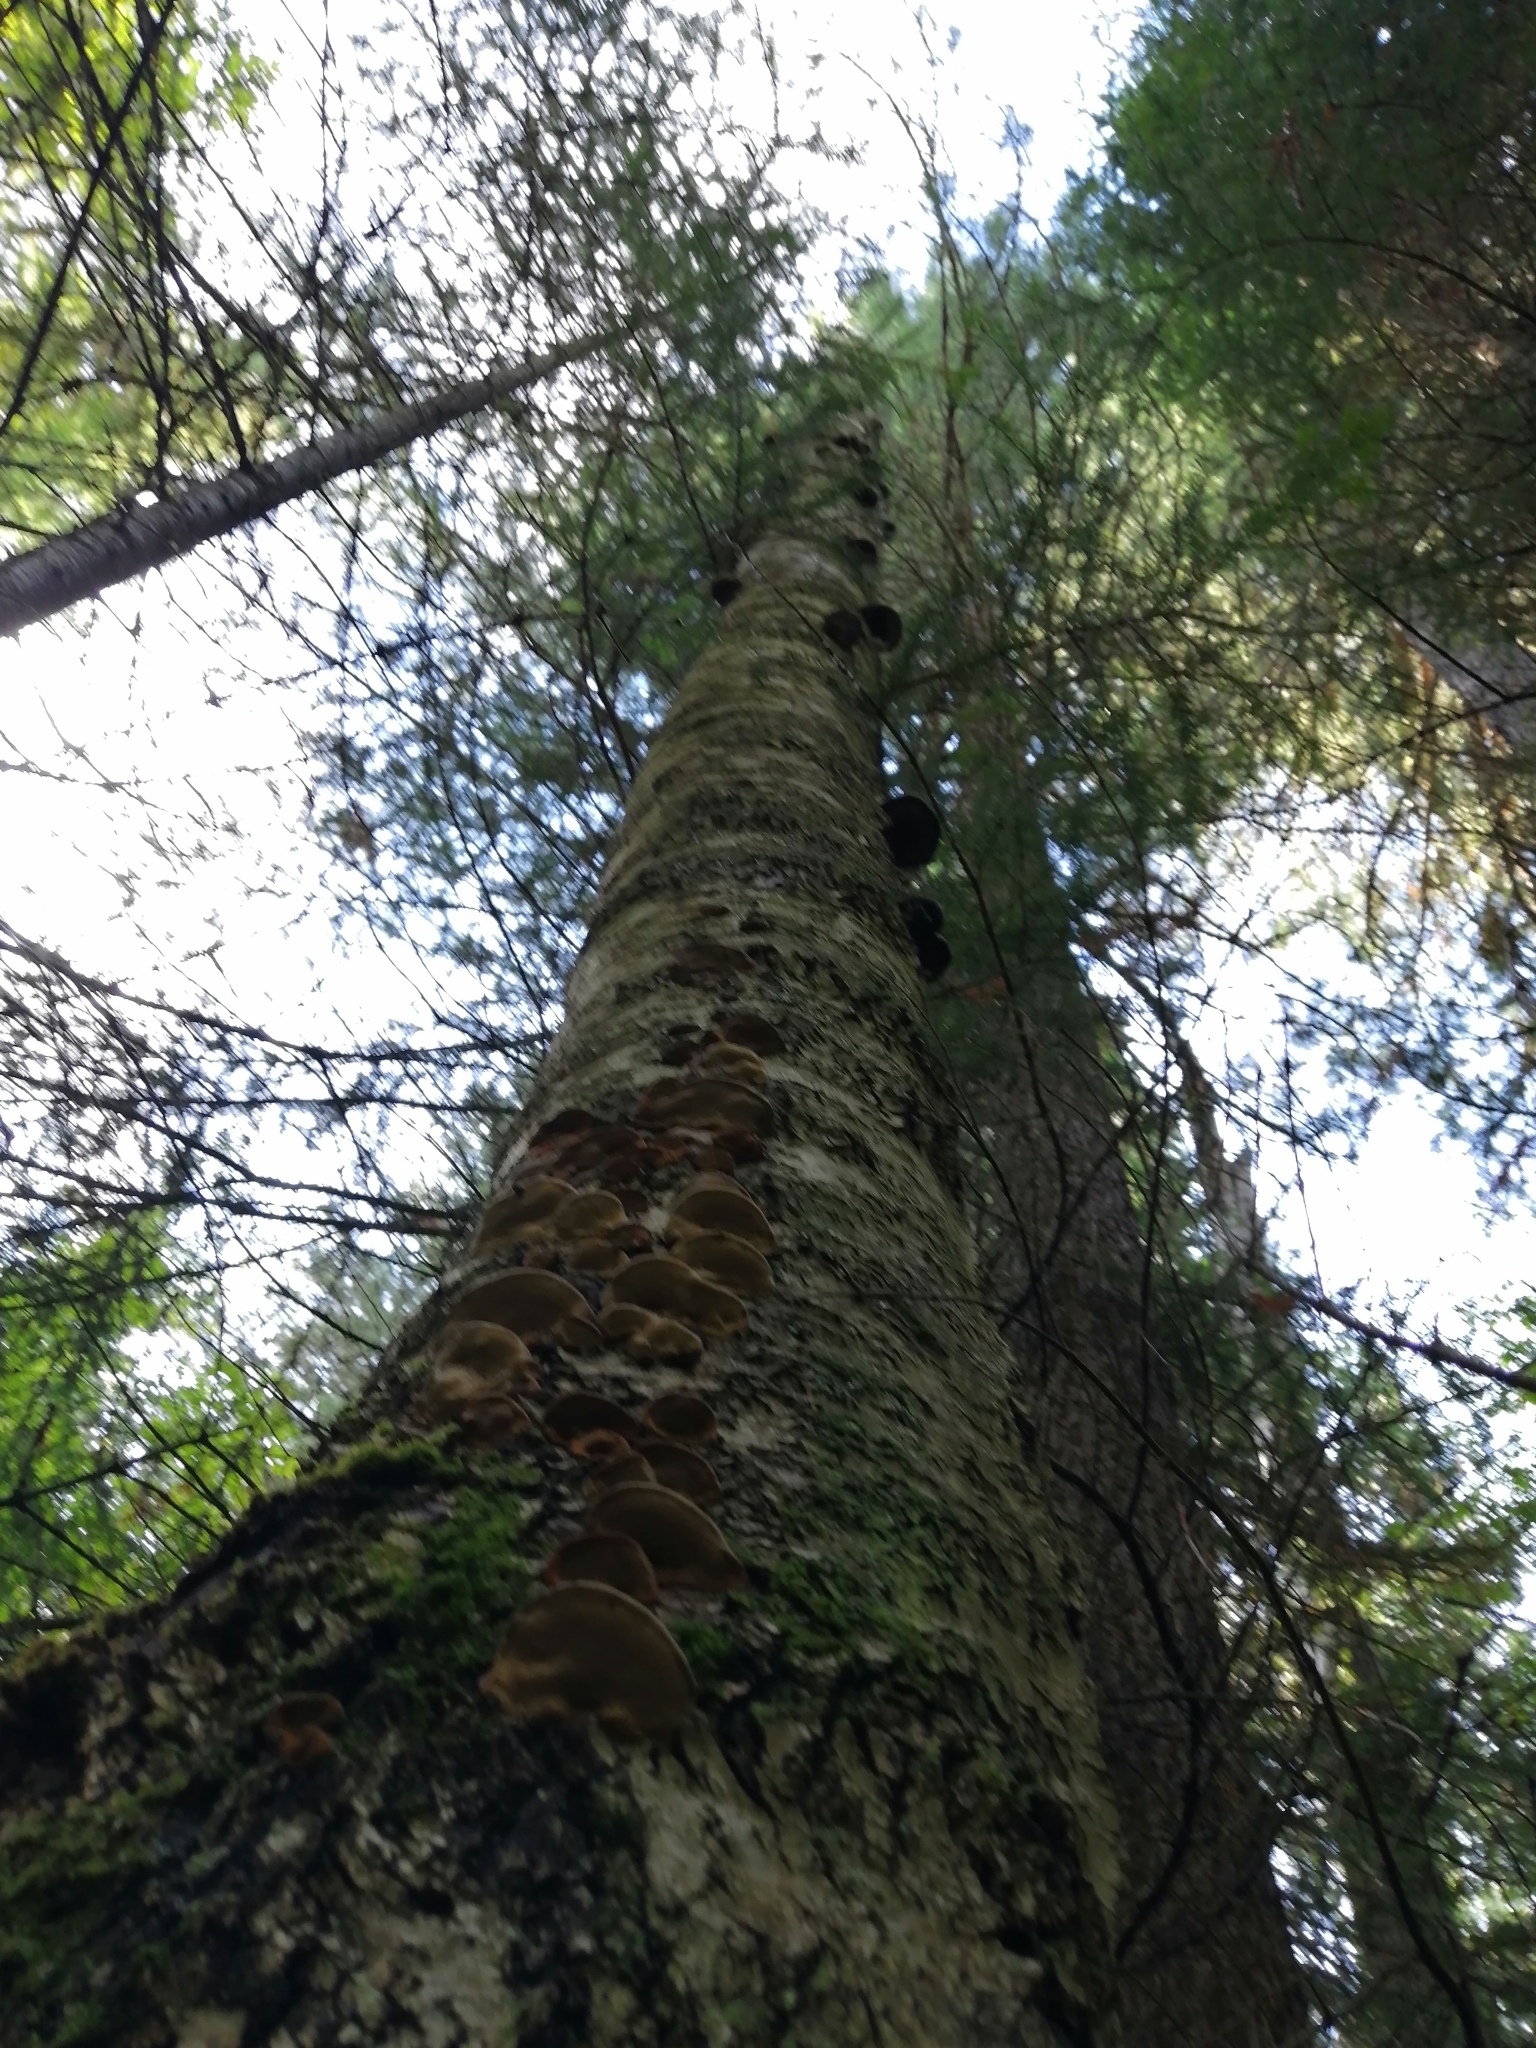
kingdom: Fungi
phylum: Basidiomycota
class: Agaricomycetes
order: Polyporales
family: Polyporaceae
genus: Fomes
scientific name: Fomes fomentarius
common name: Hoof fungus
